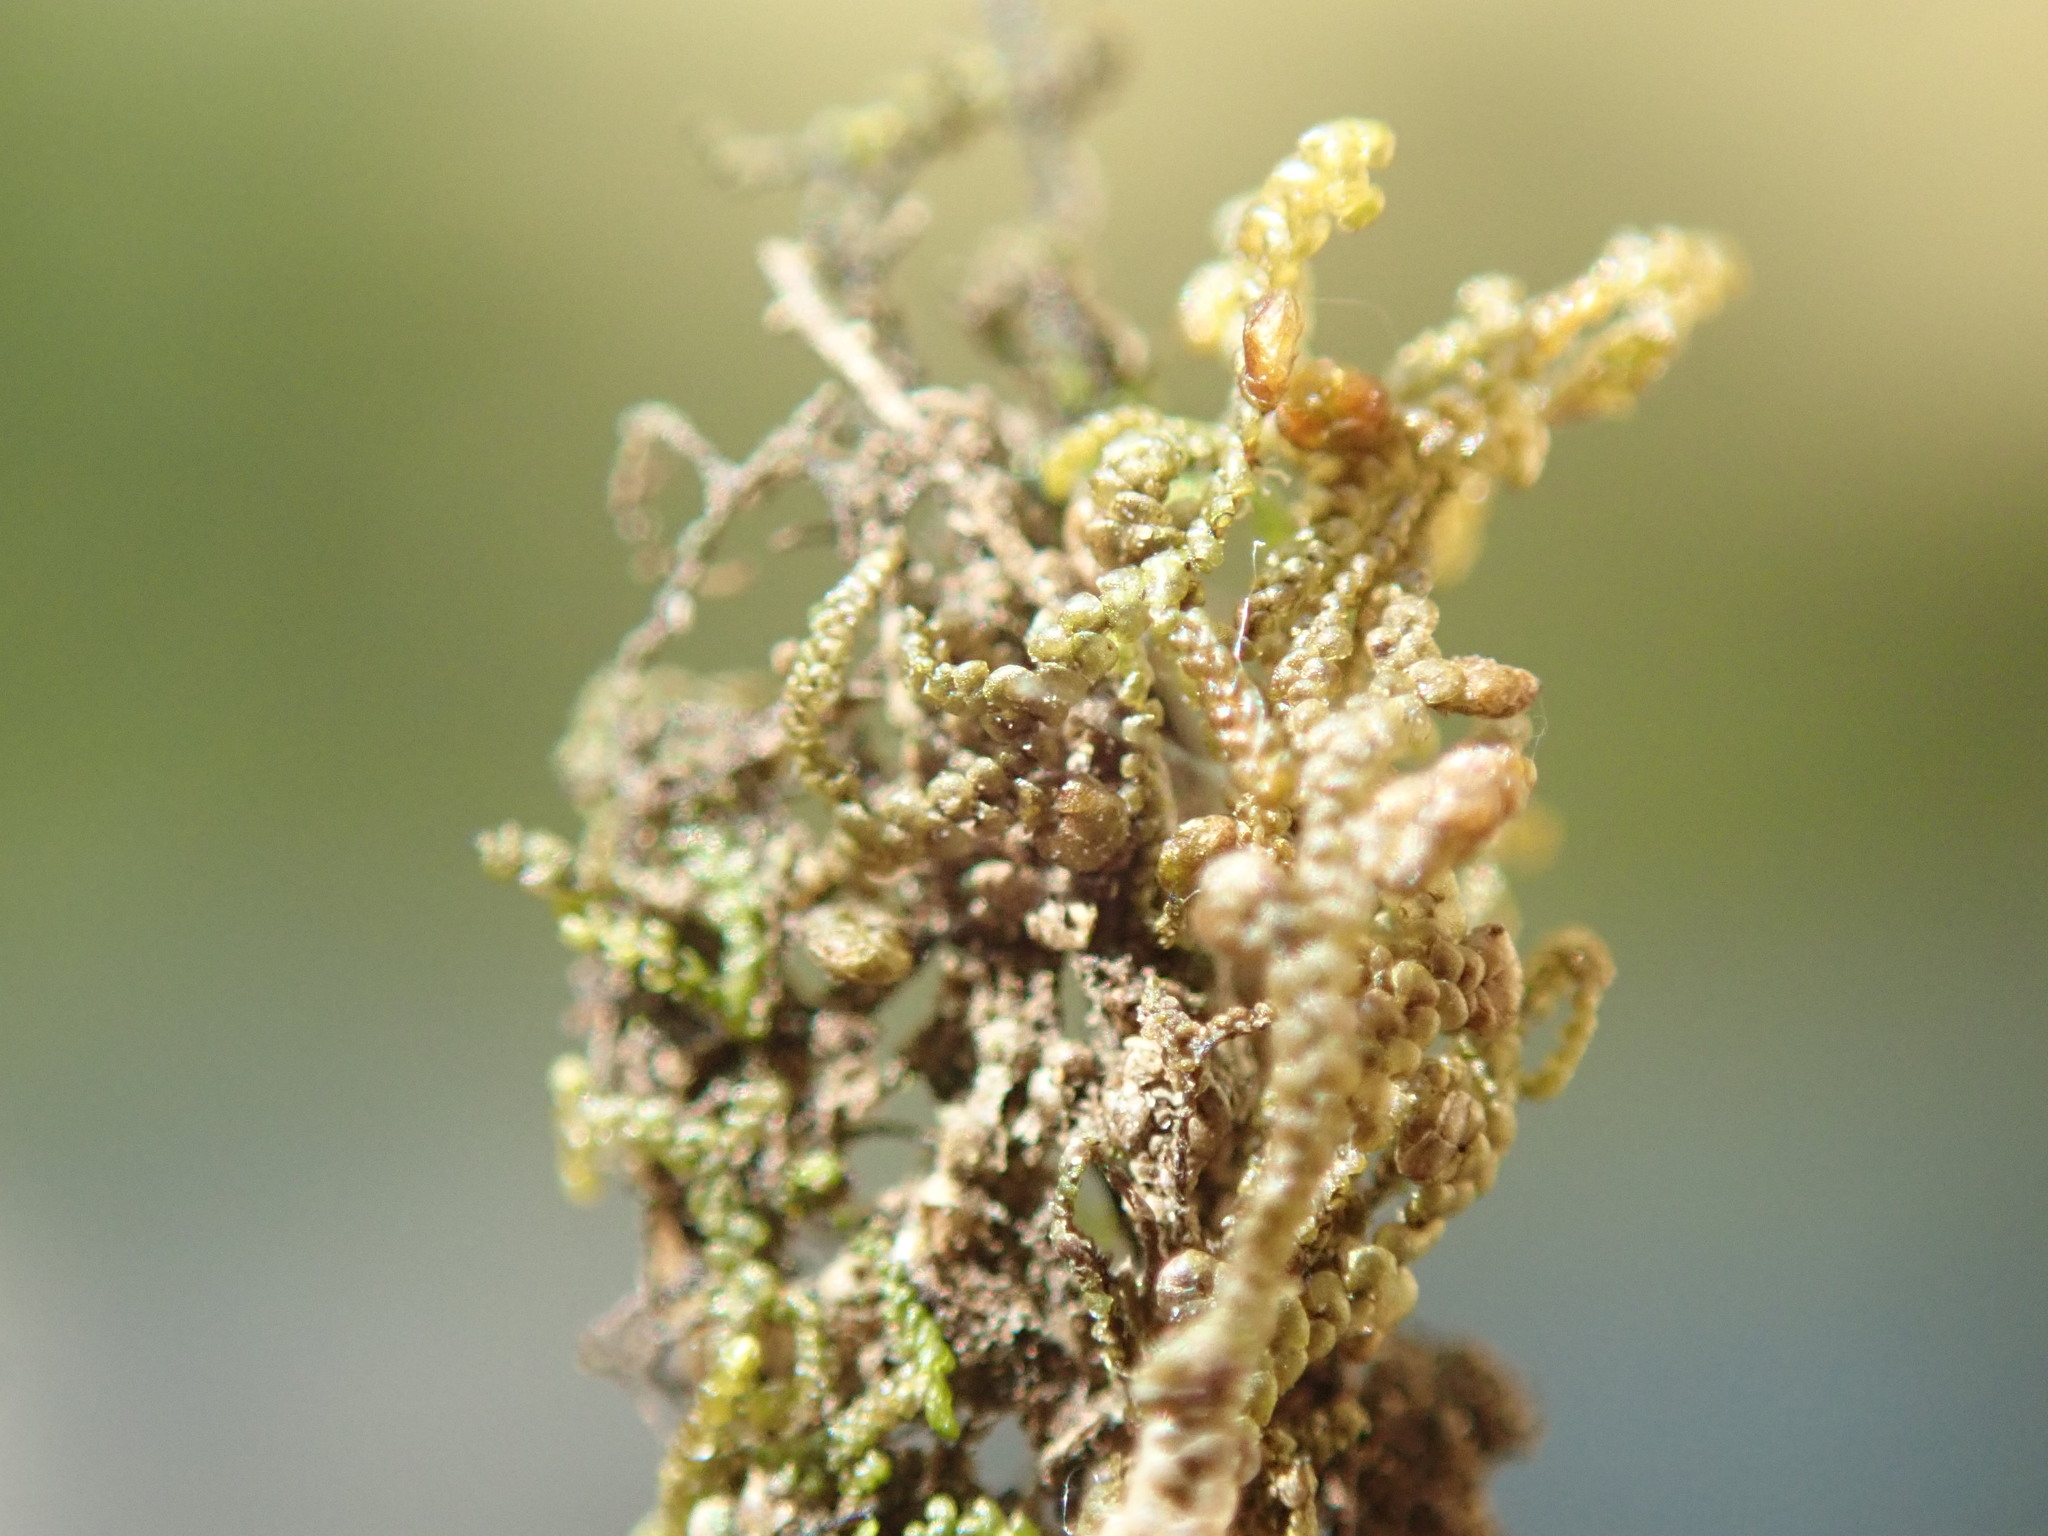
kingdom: Plantae
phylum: Marchantiophyta
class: Jungermanniopsida
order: Porellales
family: Frullaniaceae
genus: Frullania
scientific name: Frullania nisquallensis
